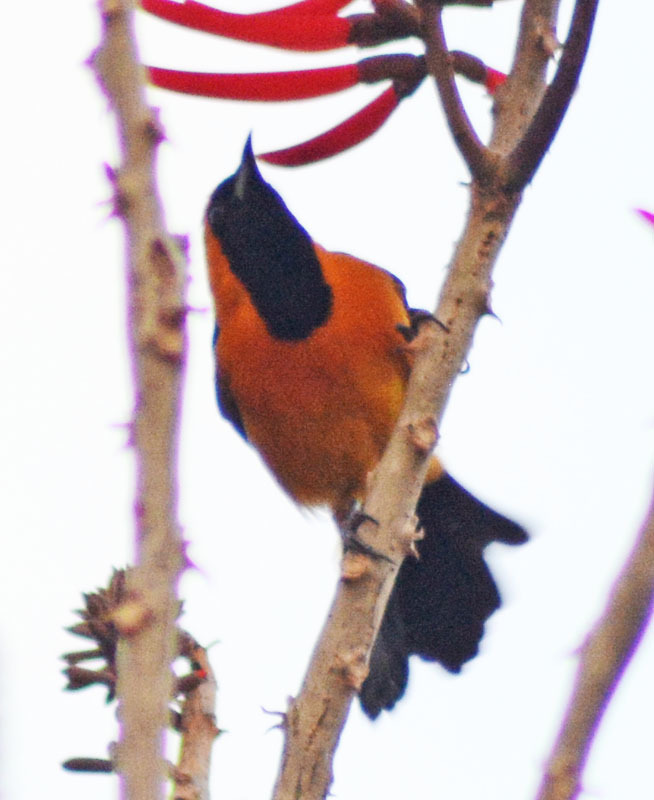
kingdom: Animalia
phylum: Chordata
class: Aves
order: Passeriformes
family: Icteridae
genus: Icterus
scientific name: Icterus cucullatus
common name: Hooded oriole
